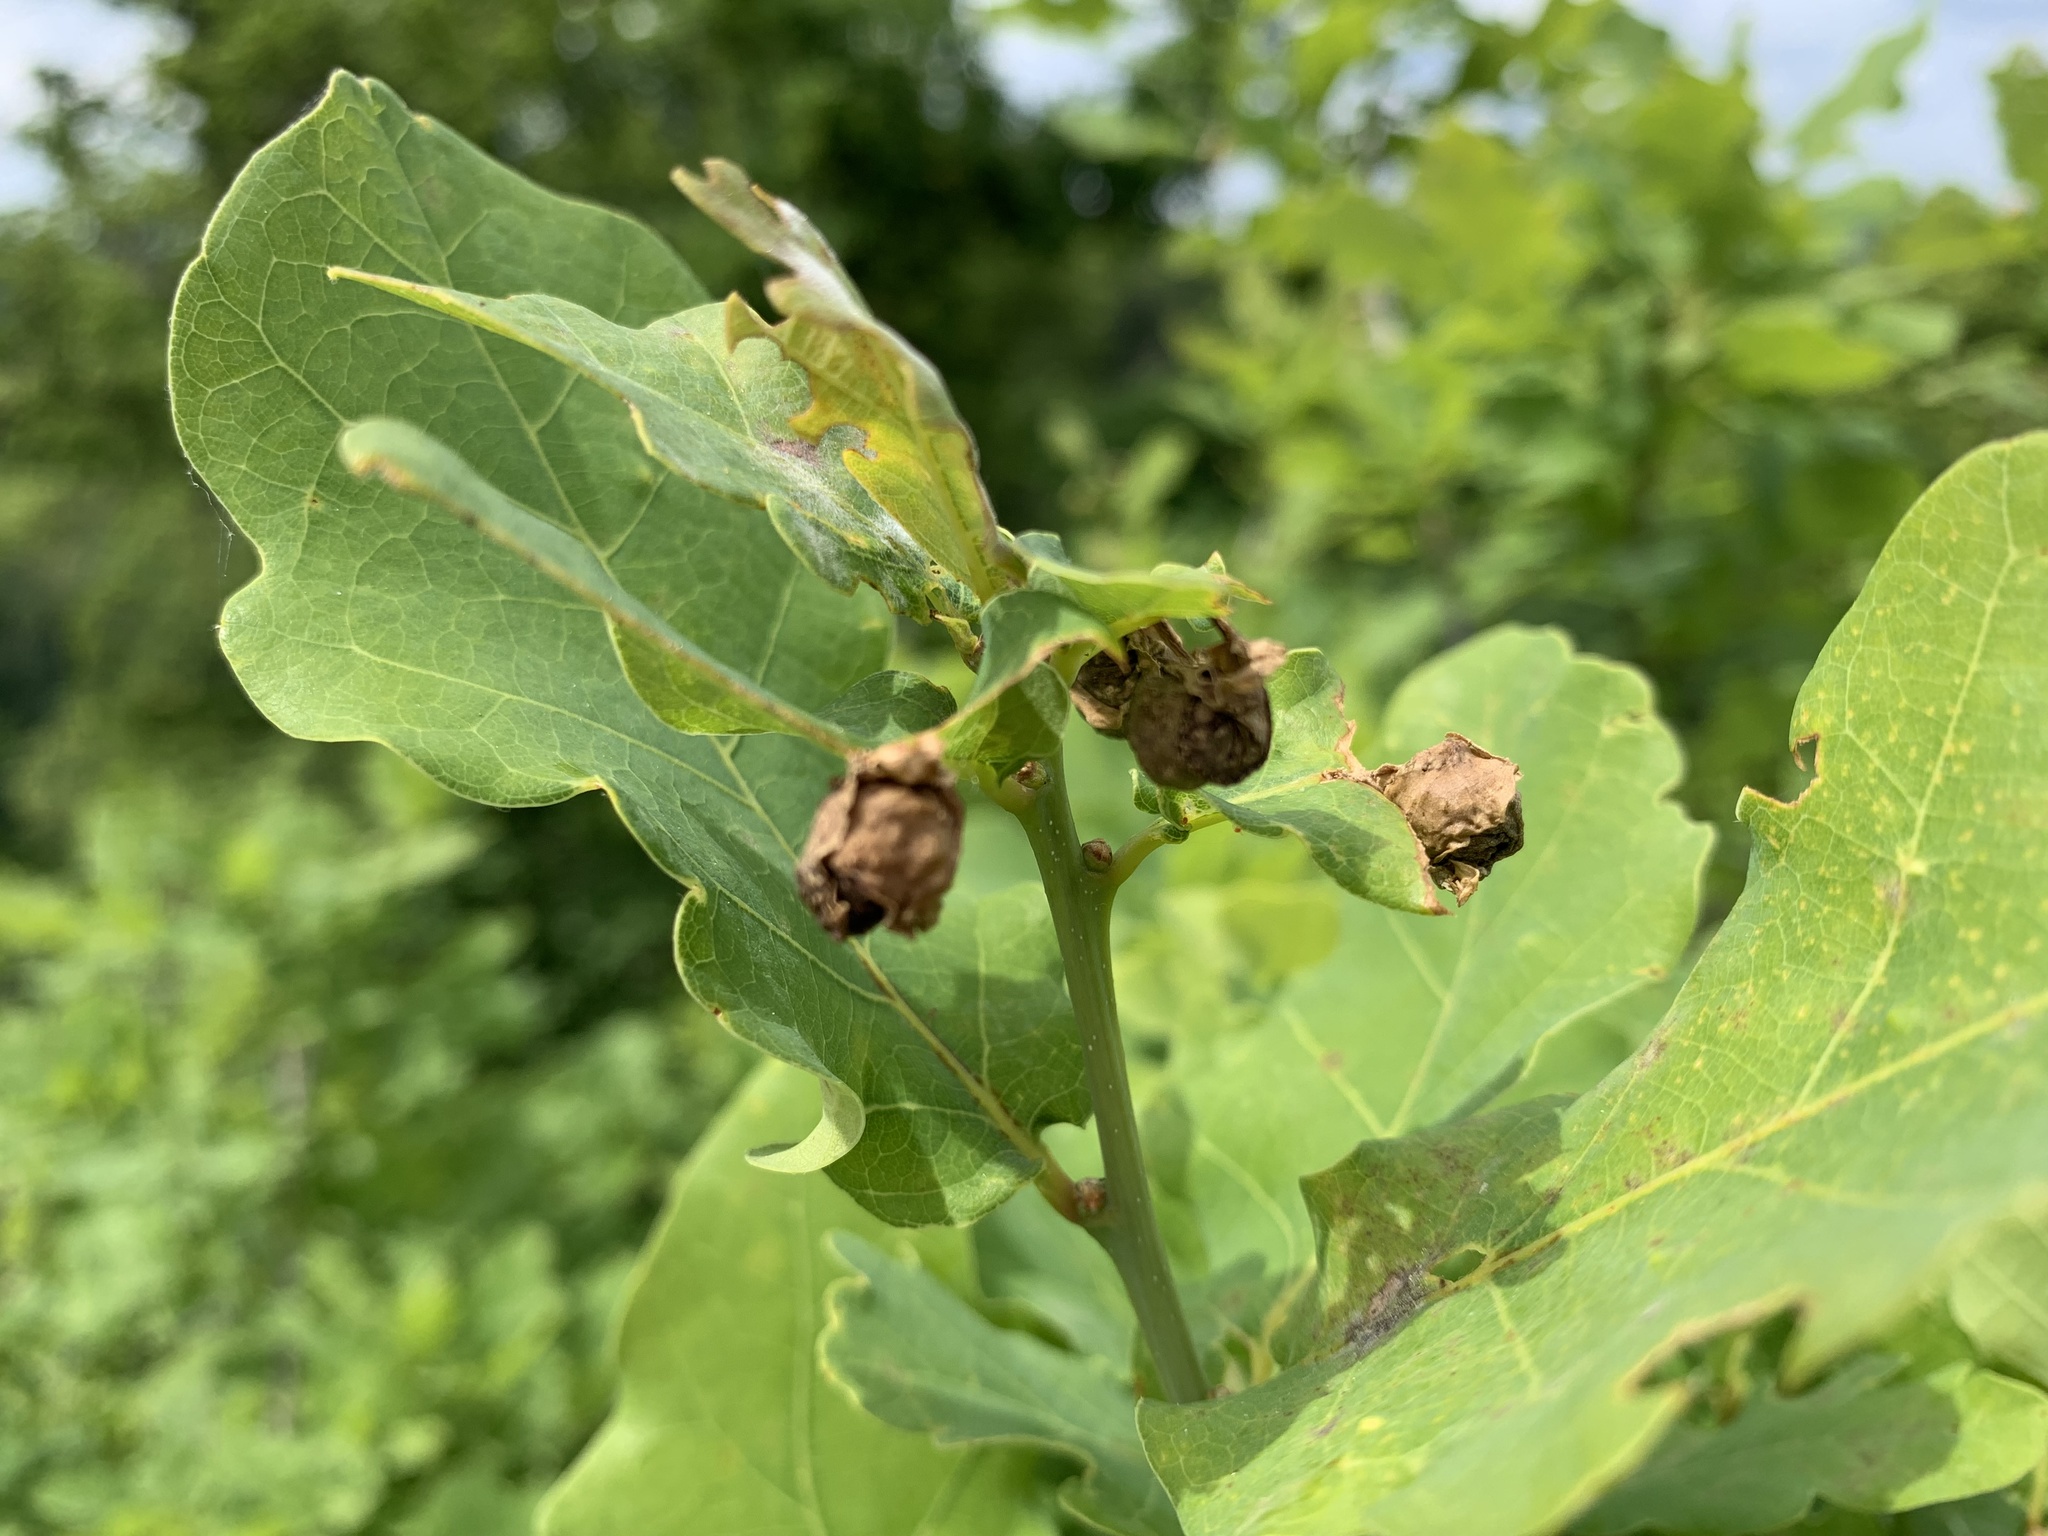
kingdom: Animalia
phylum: Arthropoda
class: Insecta
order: Coleoptera
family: Attelabidae
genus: Attelabus
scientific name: Attelabus nitens
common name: Oak leaf-roller
